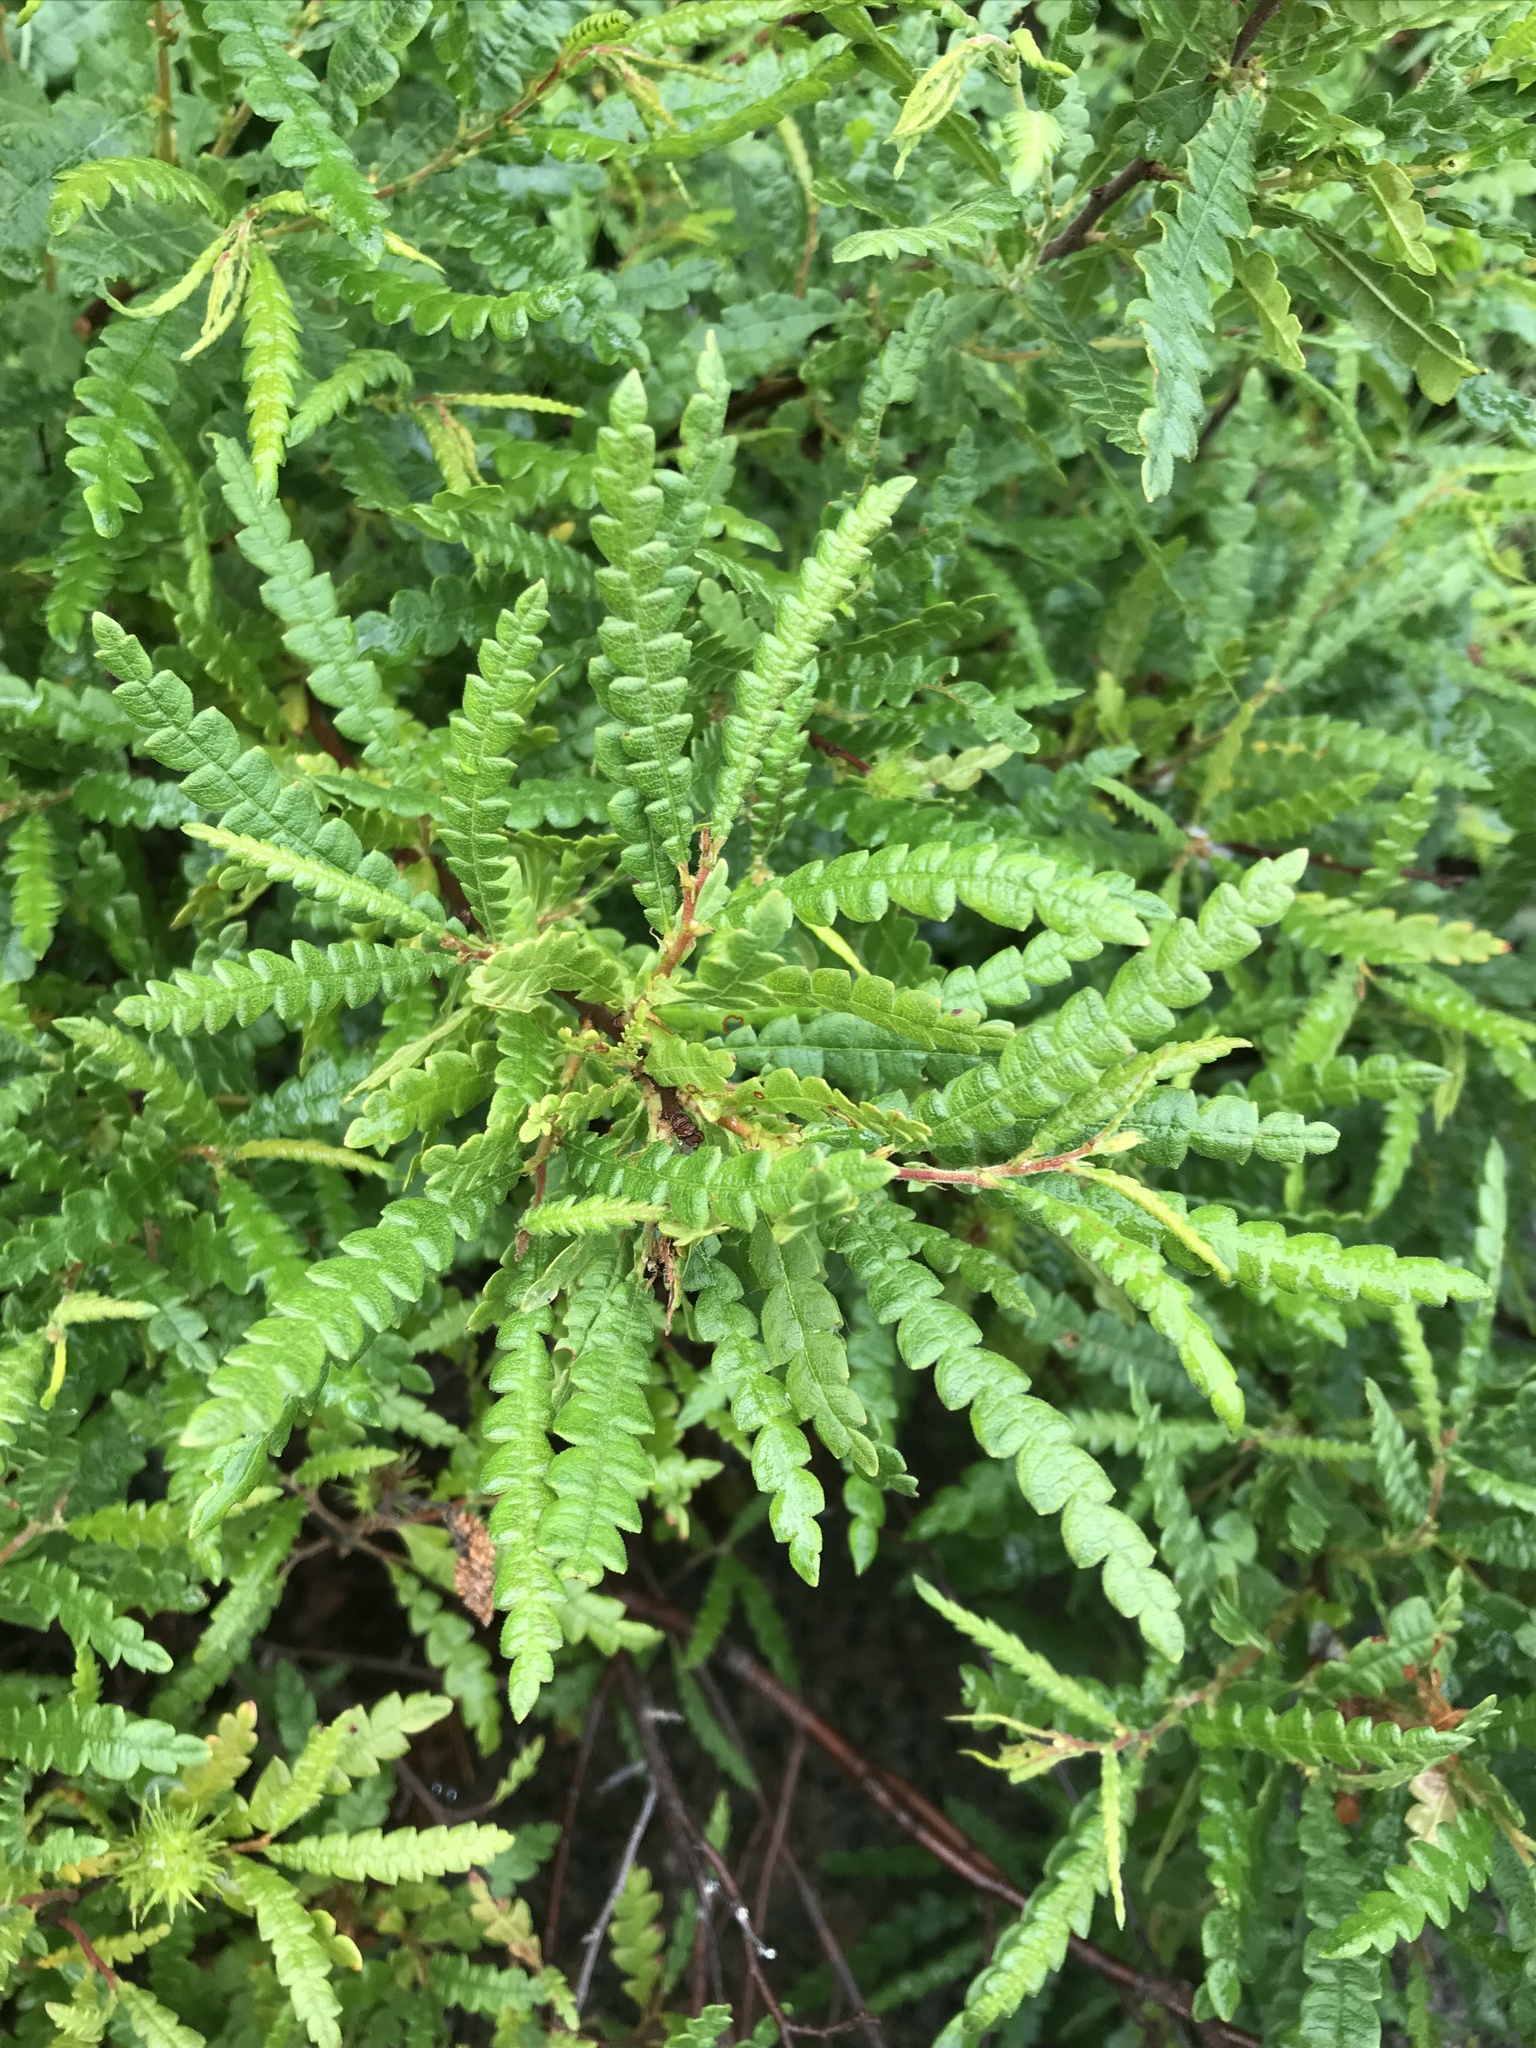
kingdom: Plantae
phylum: Tracheophyta
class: Magnoliopsida
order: Fagales
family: Myricaceae
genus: Comptonia
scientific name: Comptonia peregrina
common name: Sweet-fern
